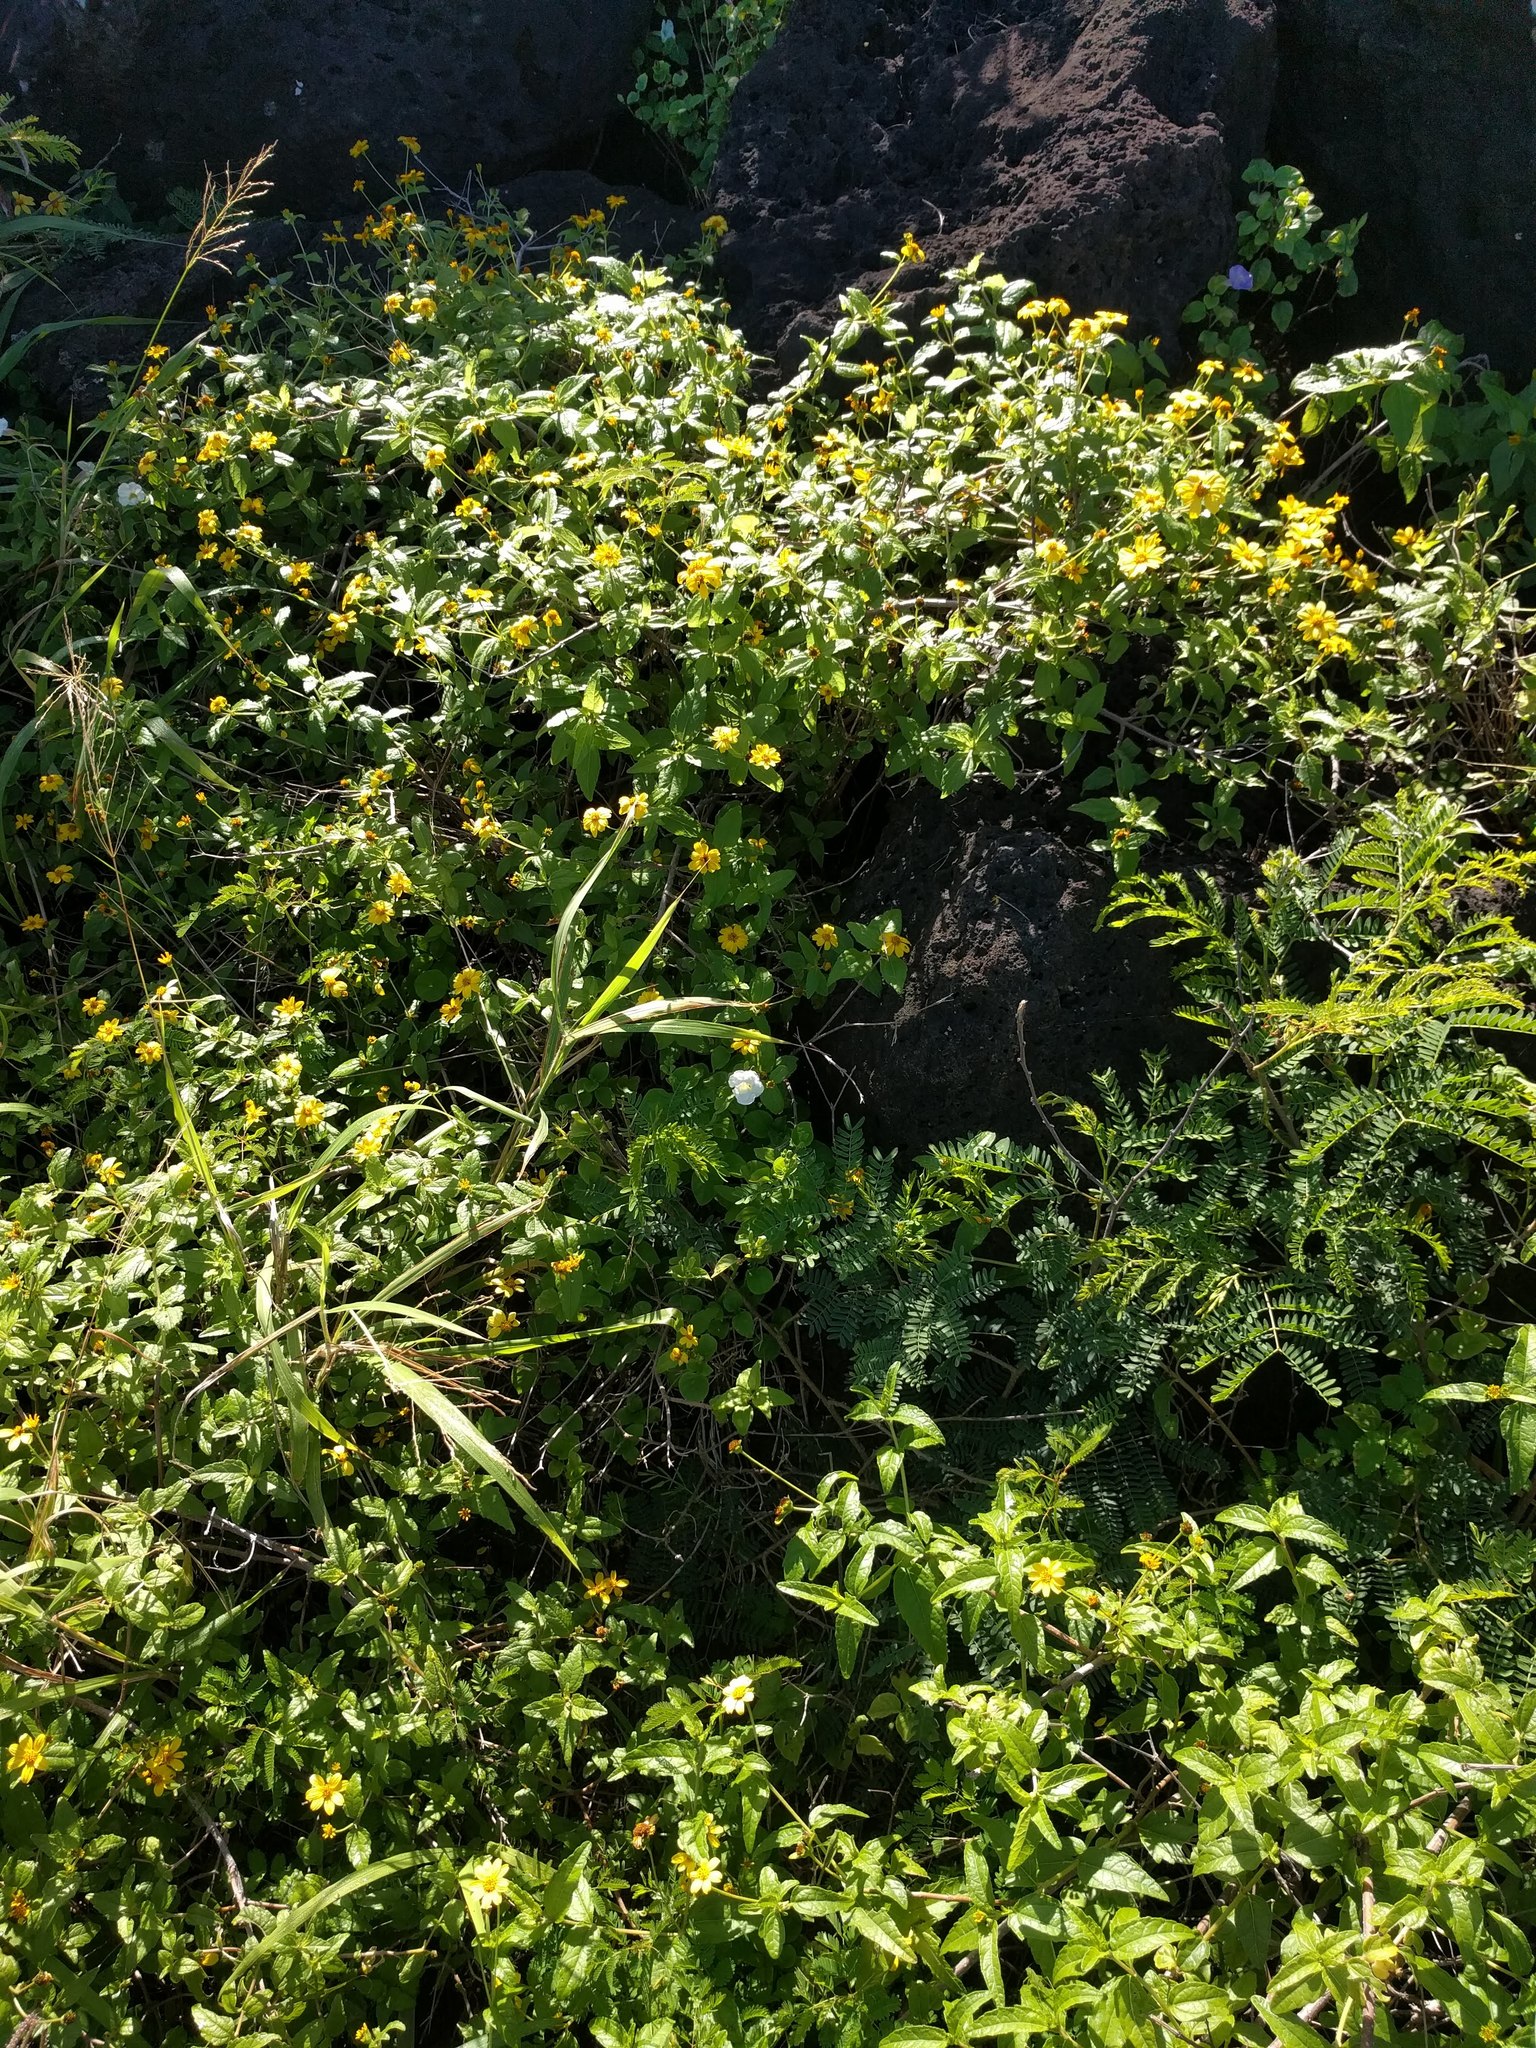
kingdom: Plantae
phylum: Tracheophyta
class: Magnoliopsida
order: Asterales
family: Asteraceae
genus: Lipochaeta
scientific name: Lipochaeta lobata
